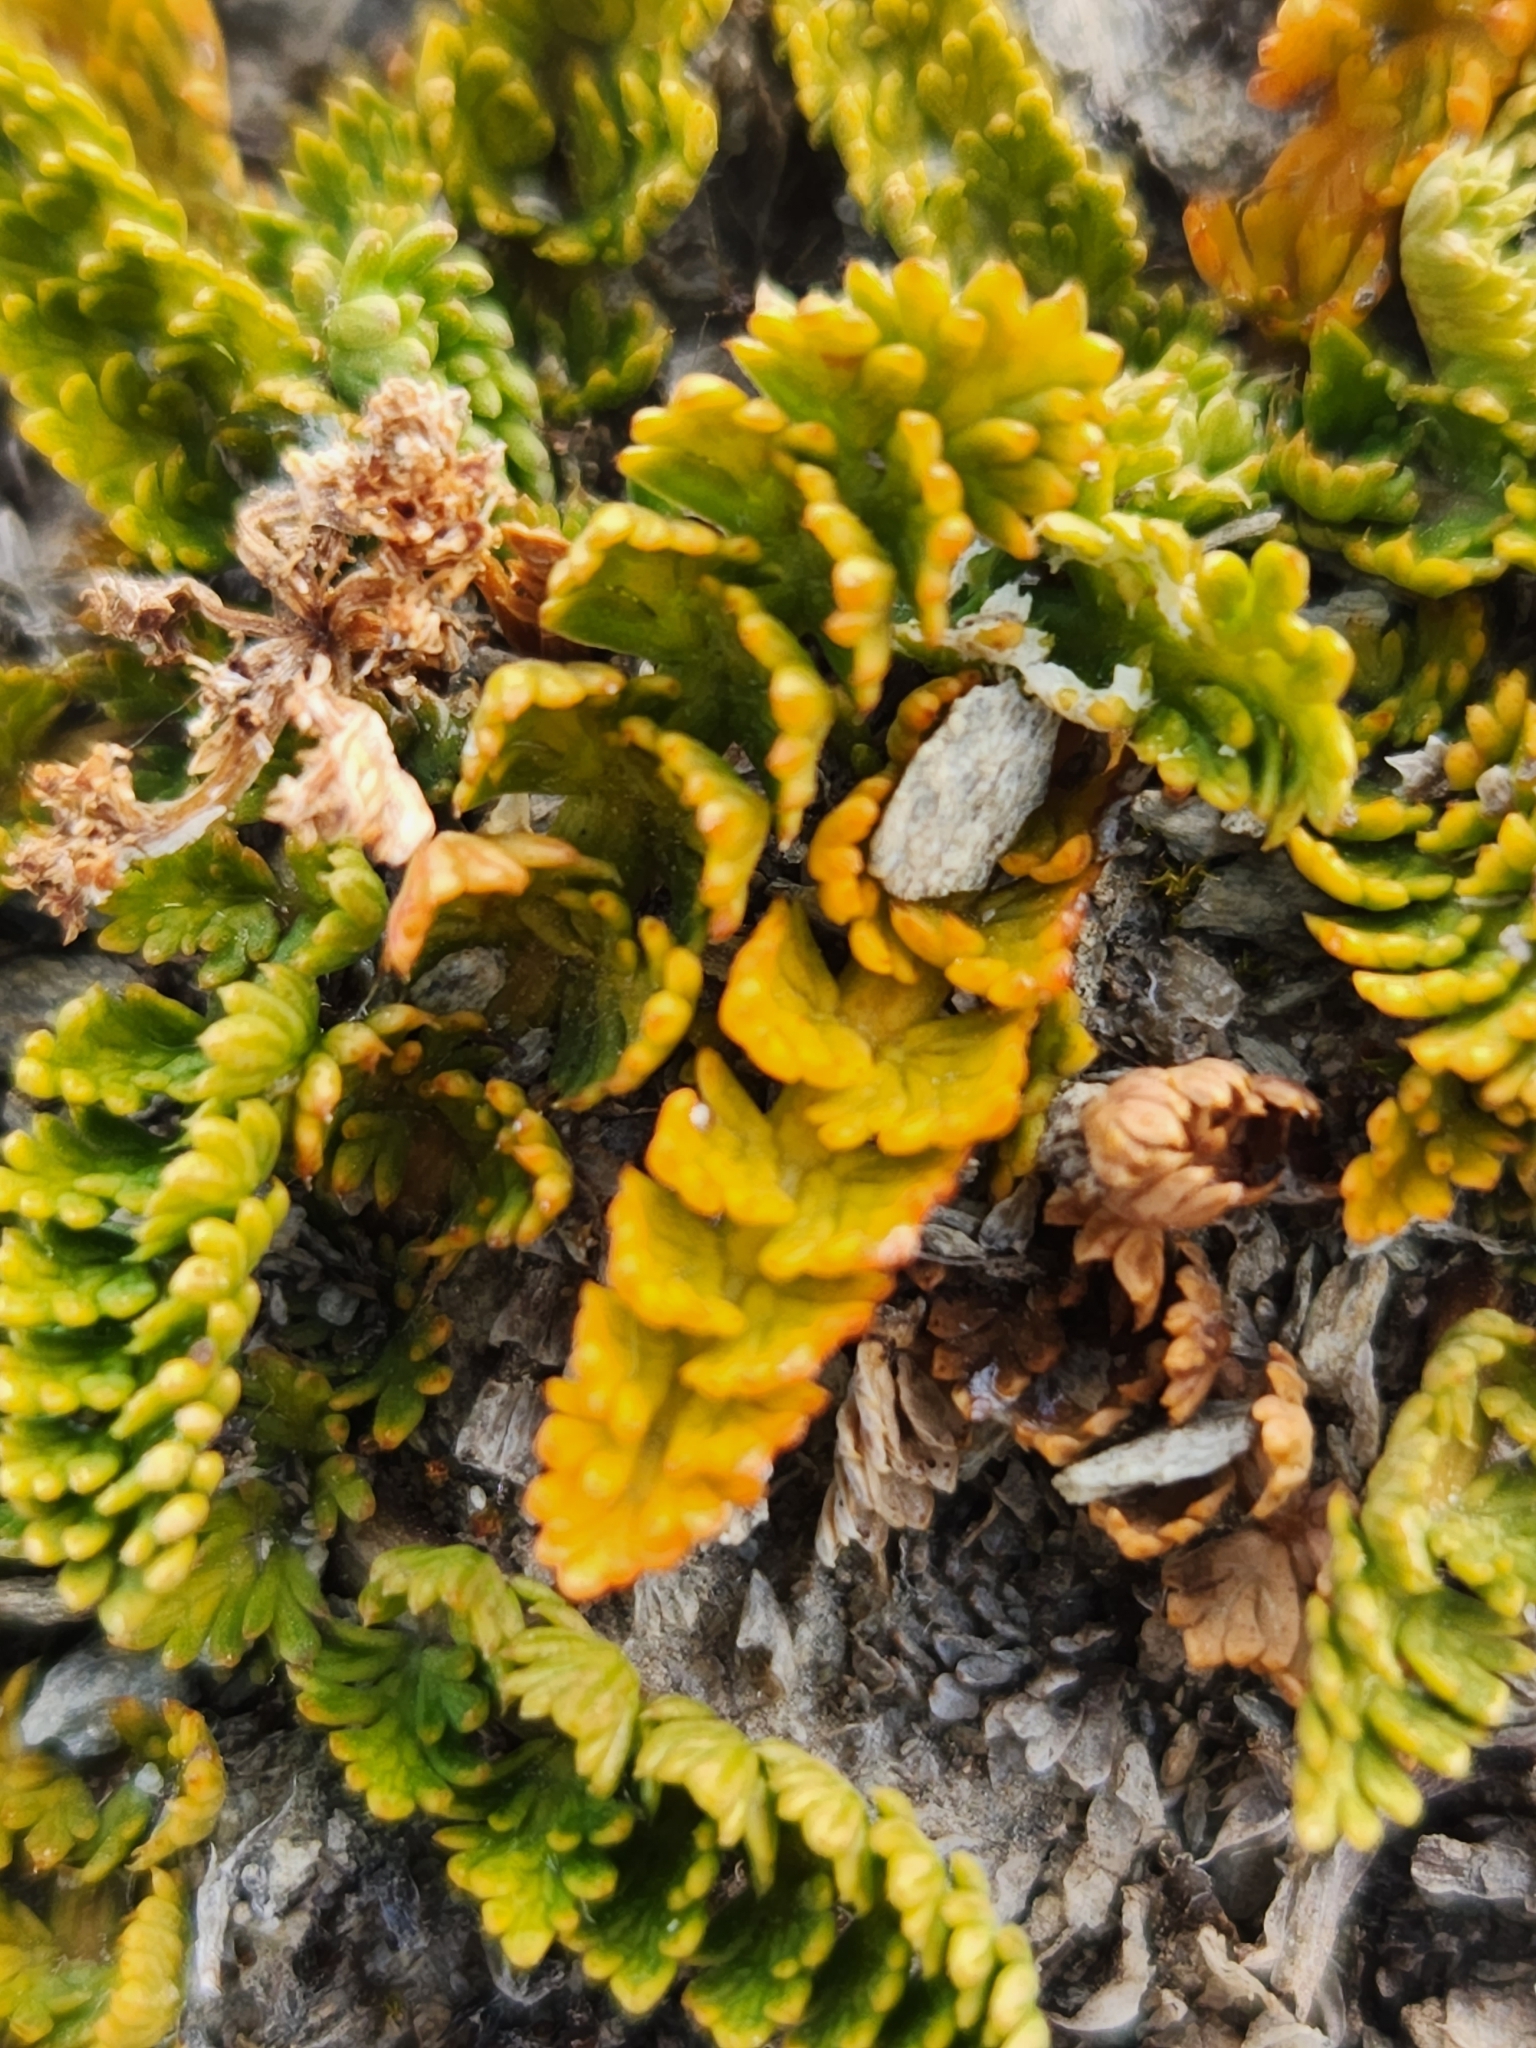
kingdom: Plantae
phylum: Tracheophyta
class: Magnoliopsida
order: Apiales
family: Apiaceae
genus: Anisotome
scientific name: Anisotome flexuosa
